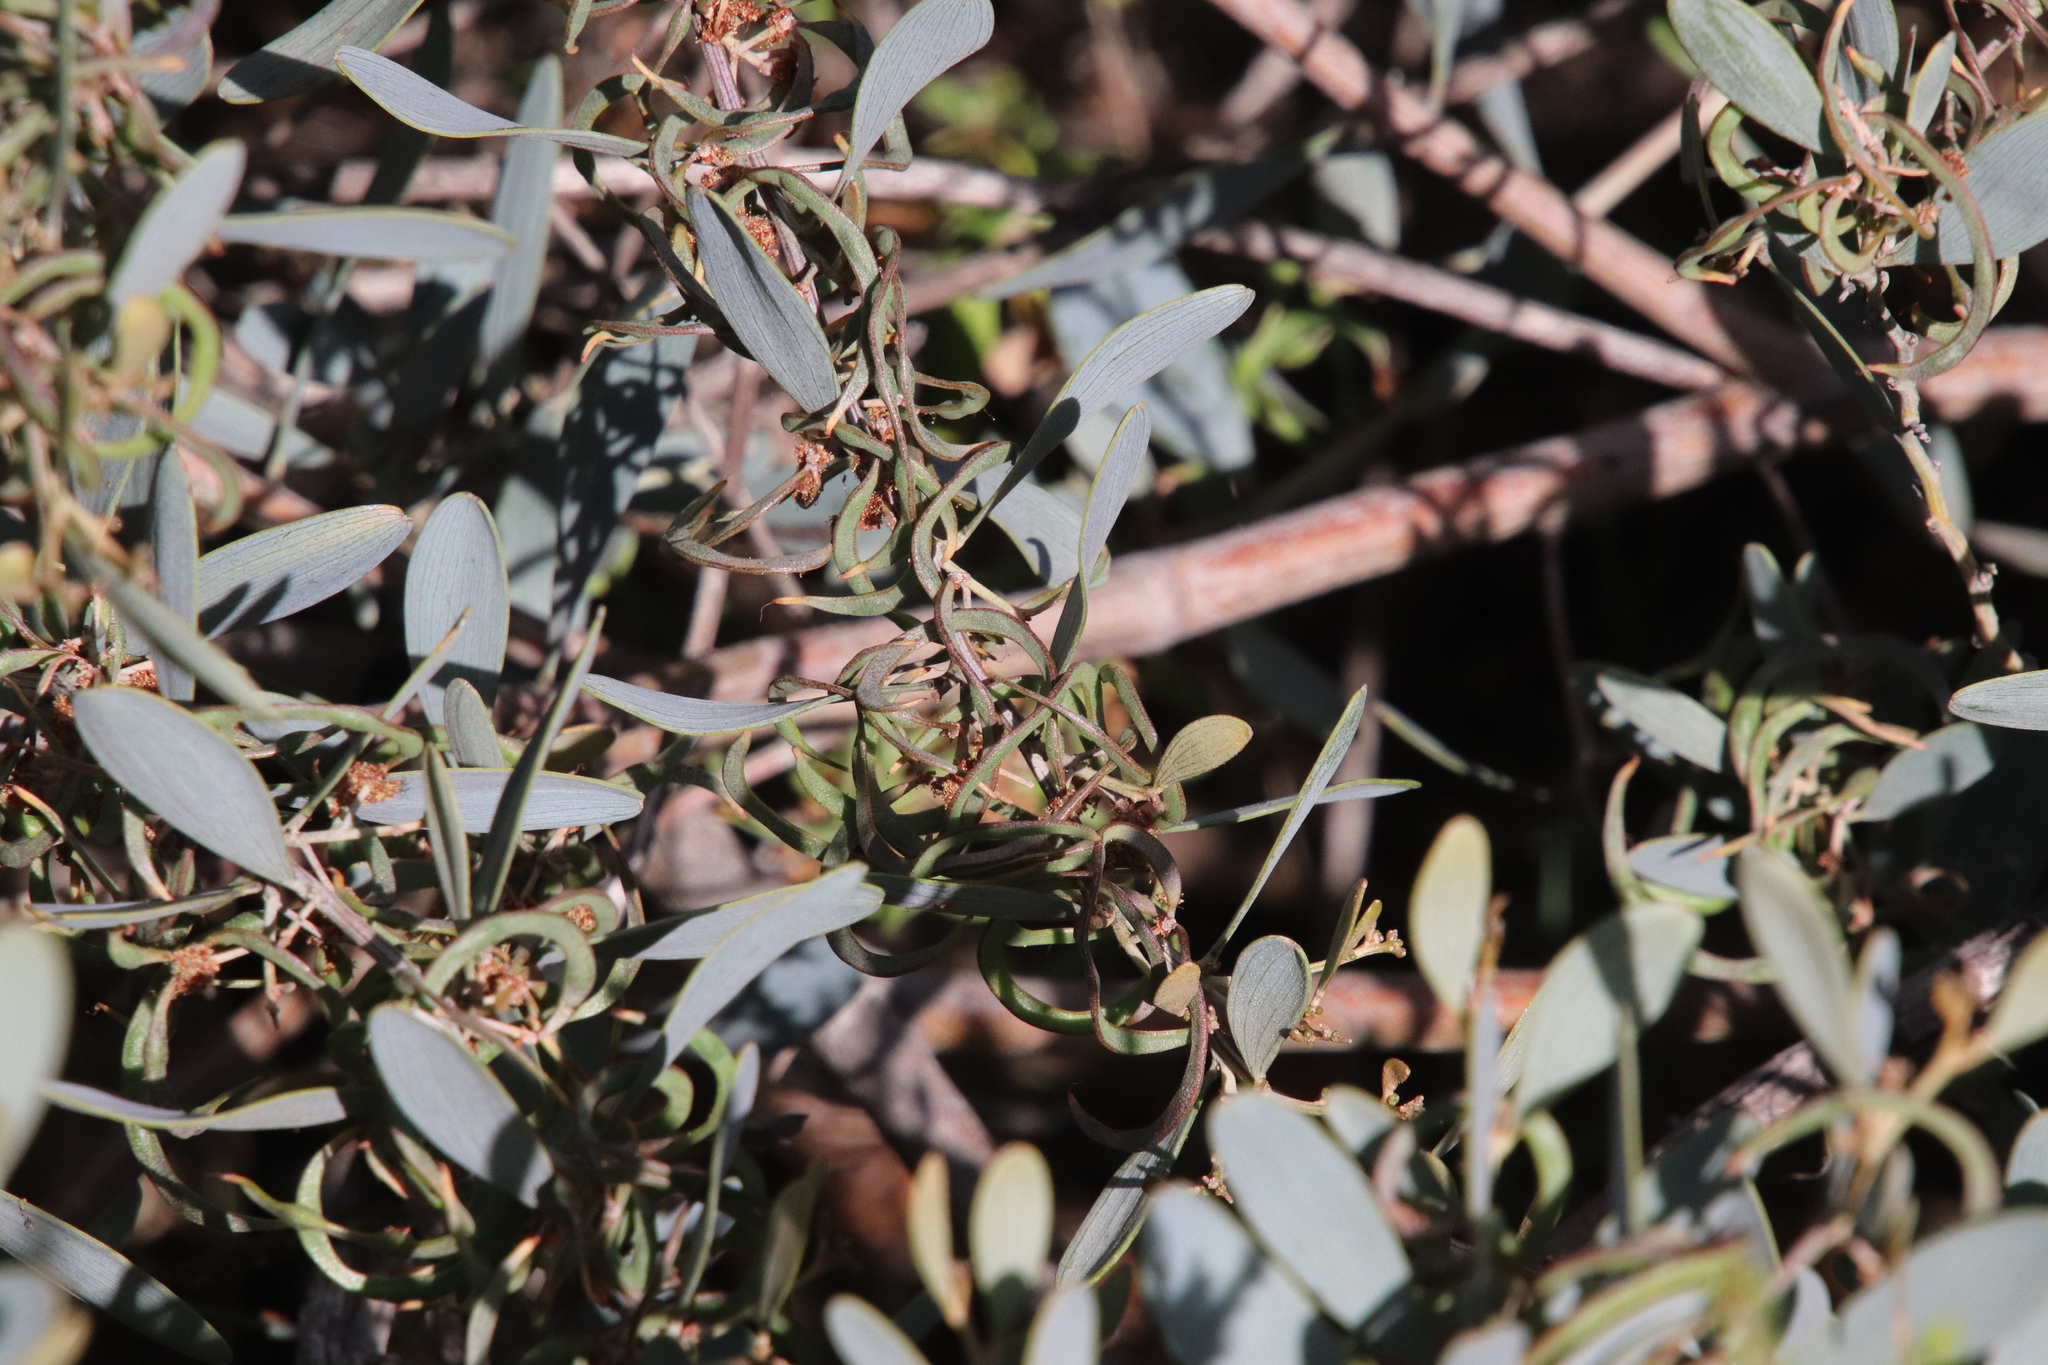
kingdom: Plantae
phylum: Tracheophyta
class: Magnoliopsida
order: Fabales
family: Fabaceae
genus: Acacia
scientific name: Acacia redolens
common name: Bank catclaw
